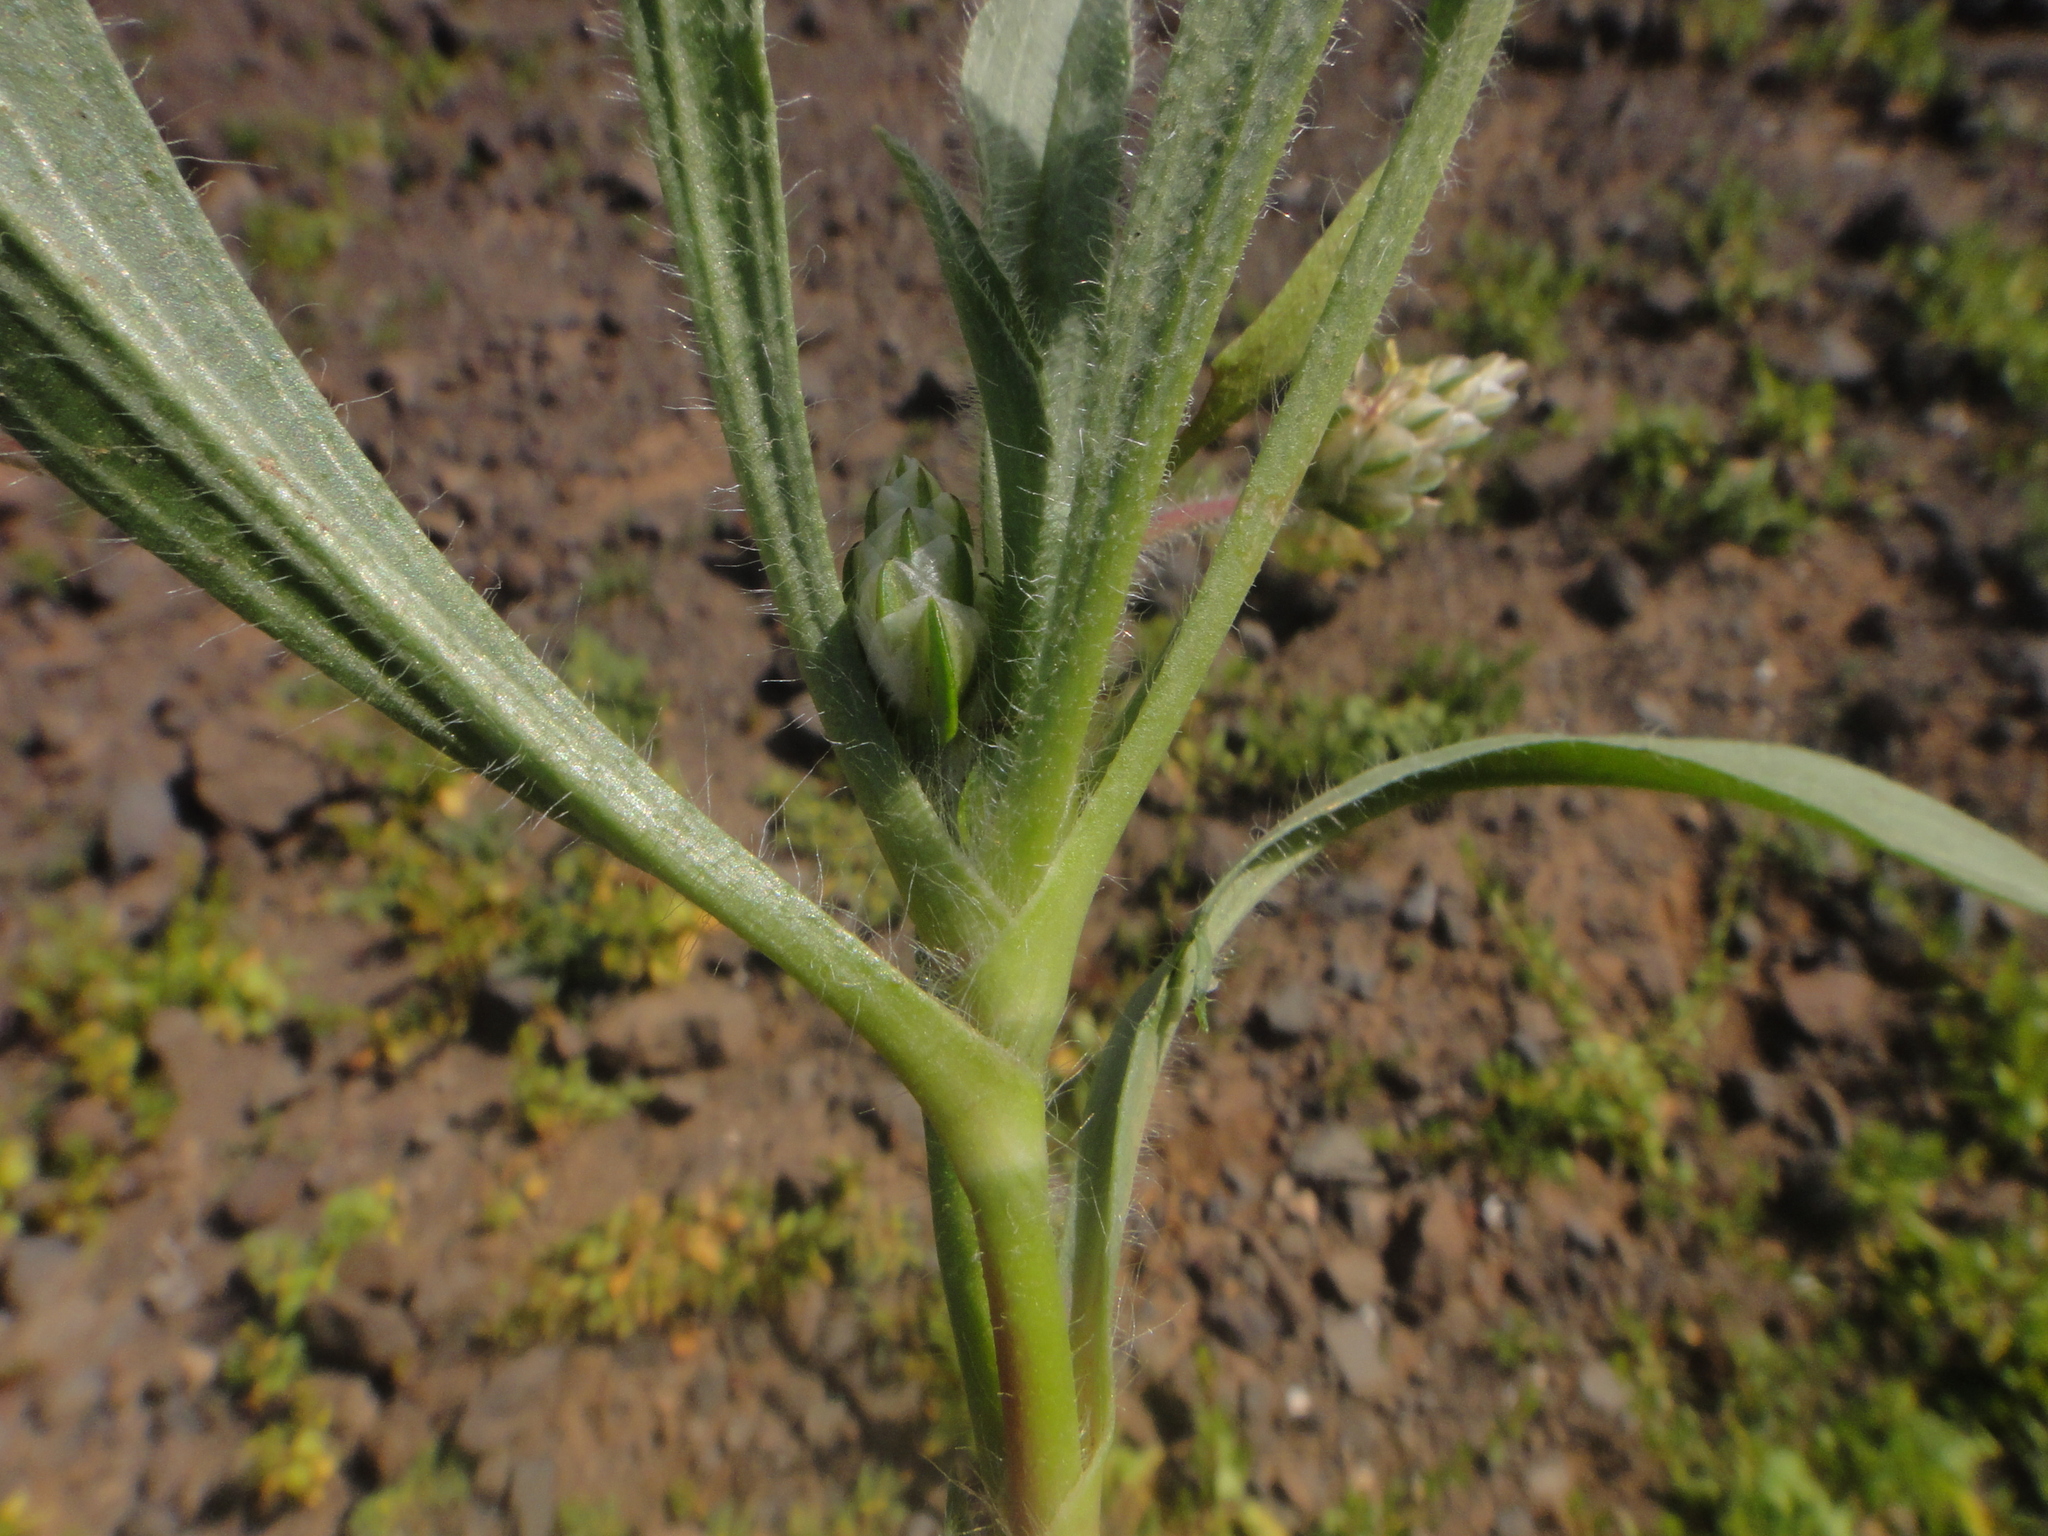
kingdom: Plantae
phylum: Tracheophyta
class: Magnoliopsida
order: Lamiales
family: Plantaginaceae
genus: Plantago
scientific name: Plantago amplexicaulis
